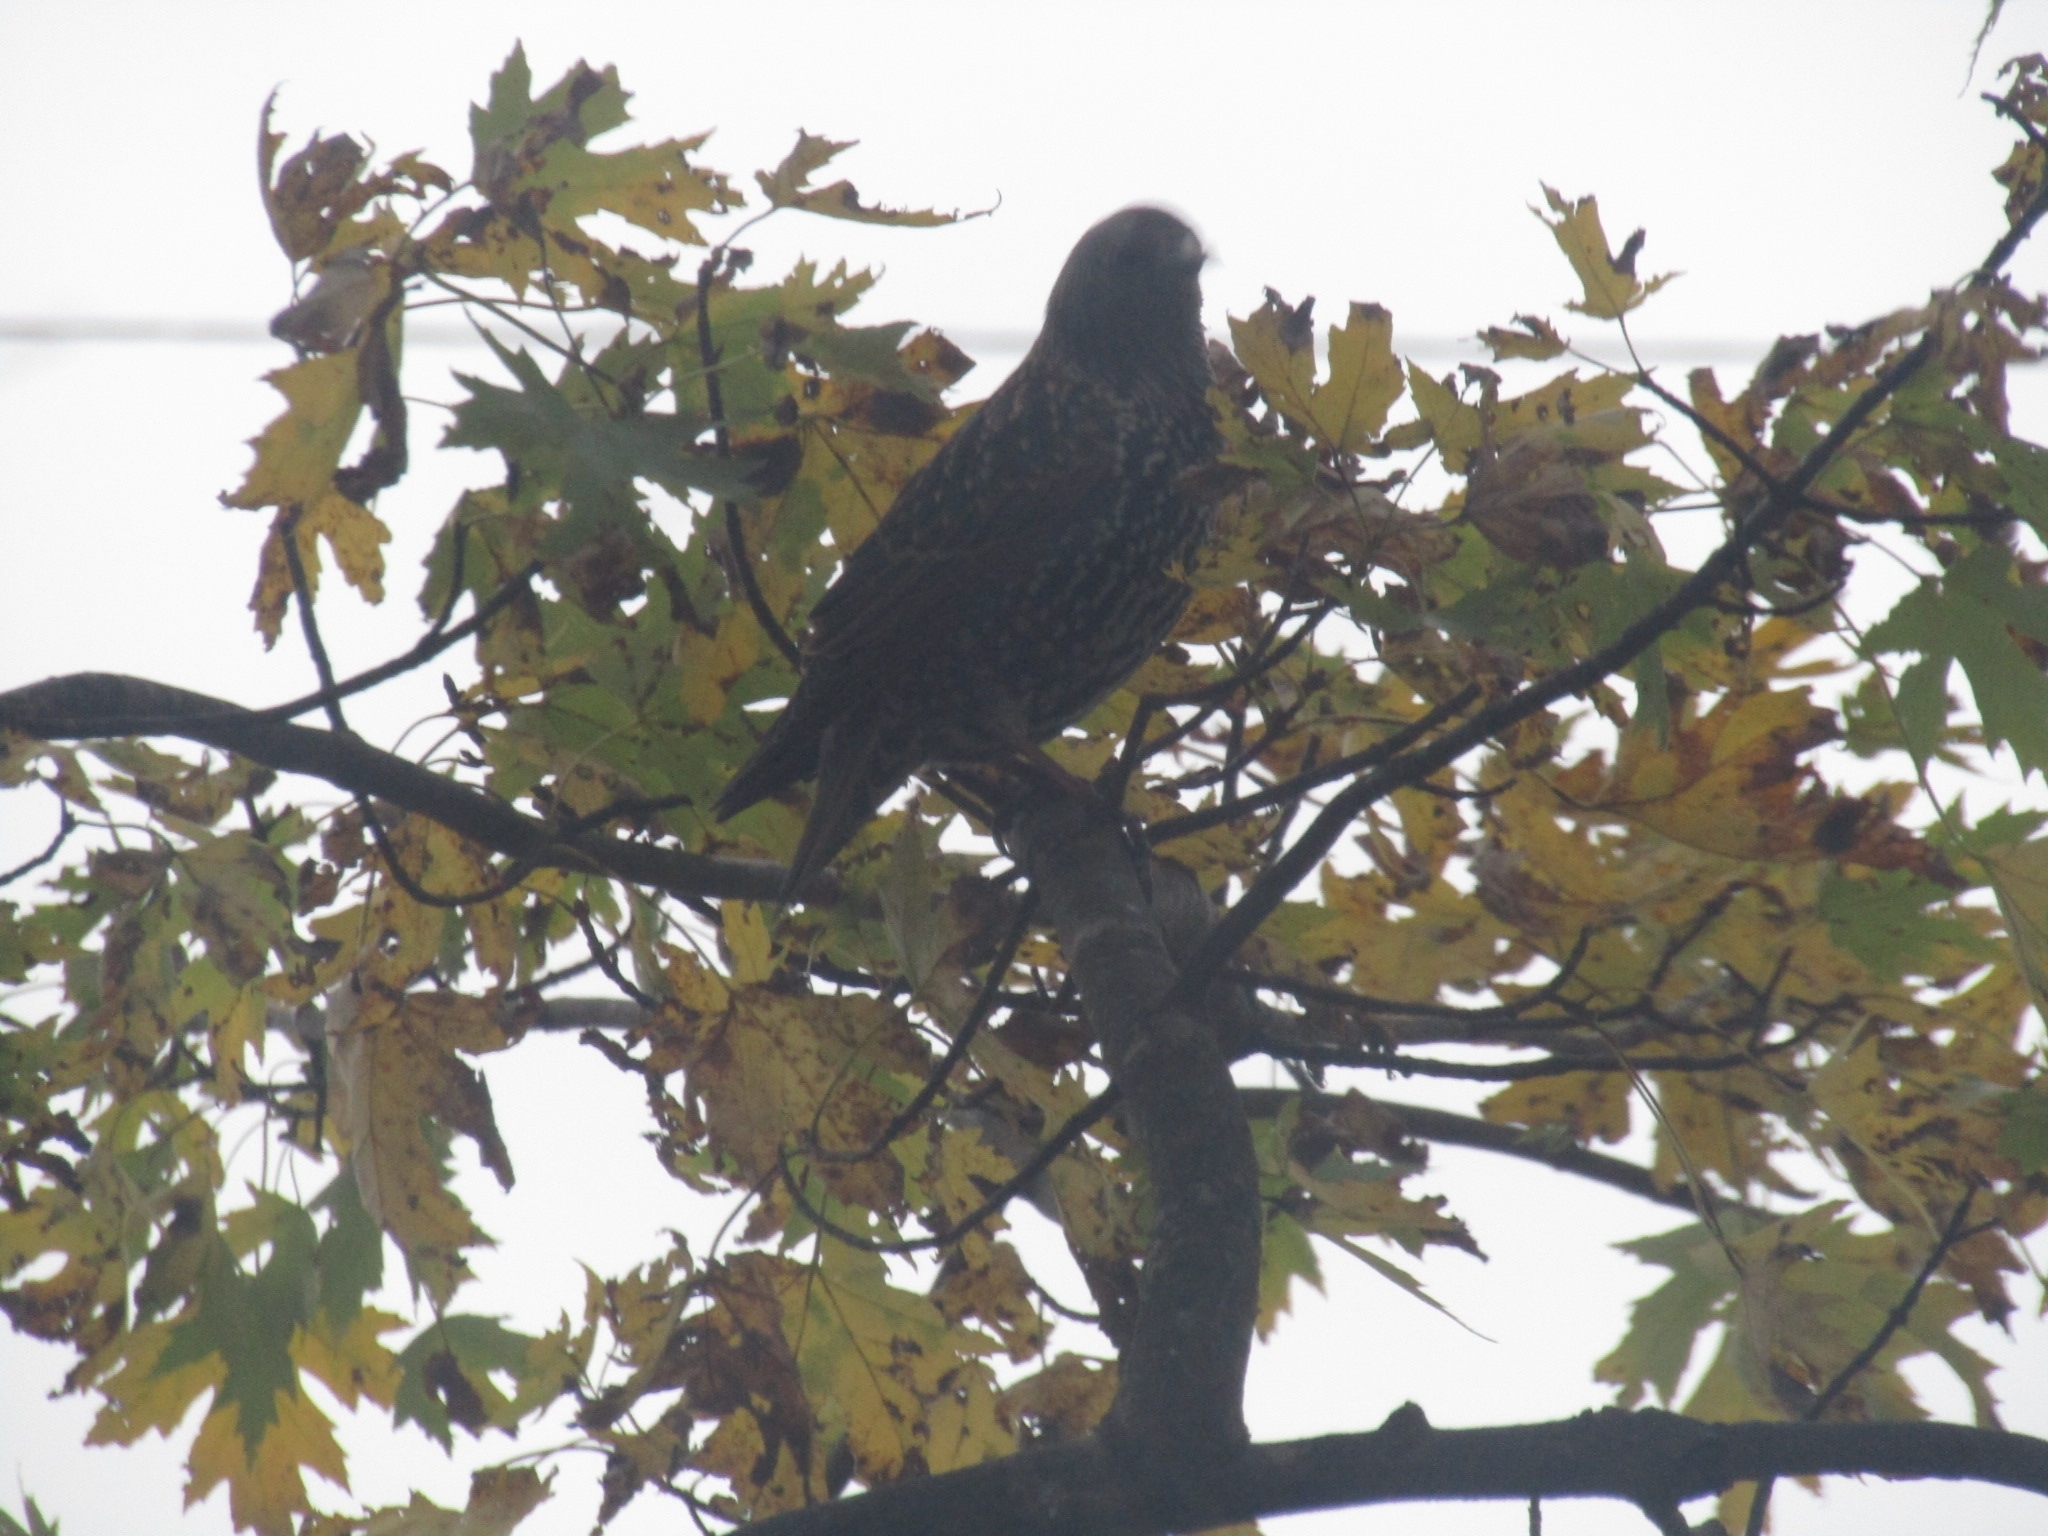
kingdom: Animalia
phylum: Chordata
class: Aves
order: Passeriformes
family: Sturnidae
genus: Sturnus
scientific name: Sturnus vulgaris
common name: Common starling
